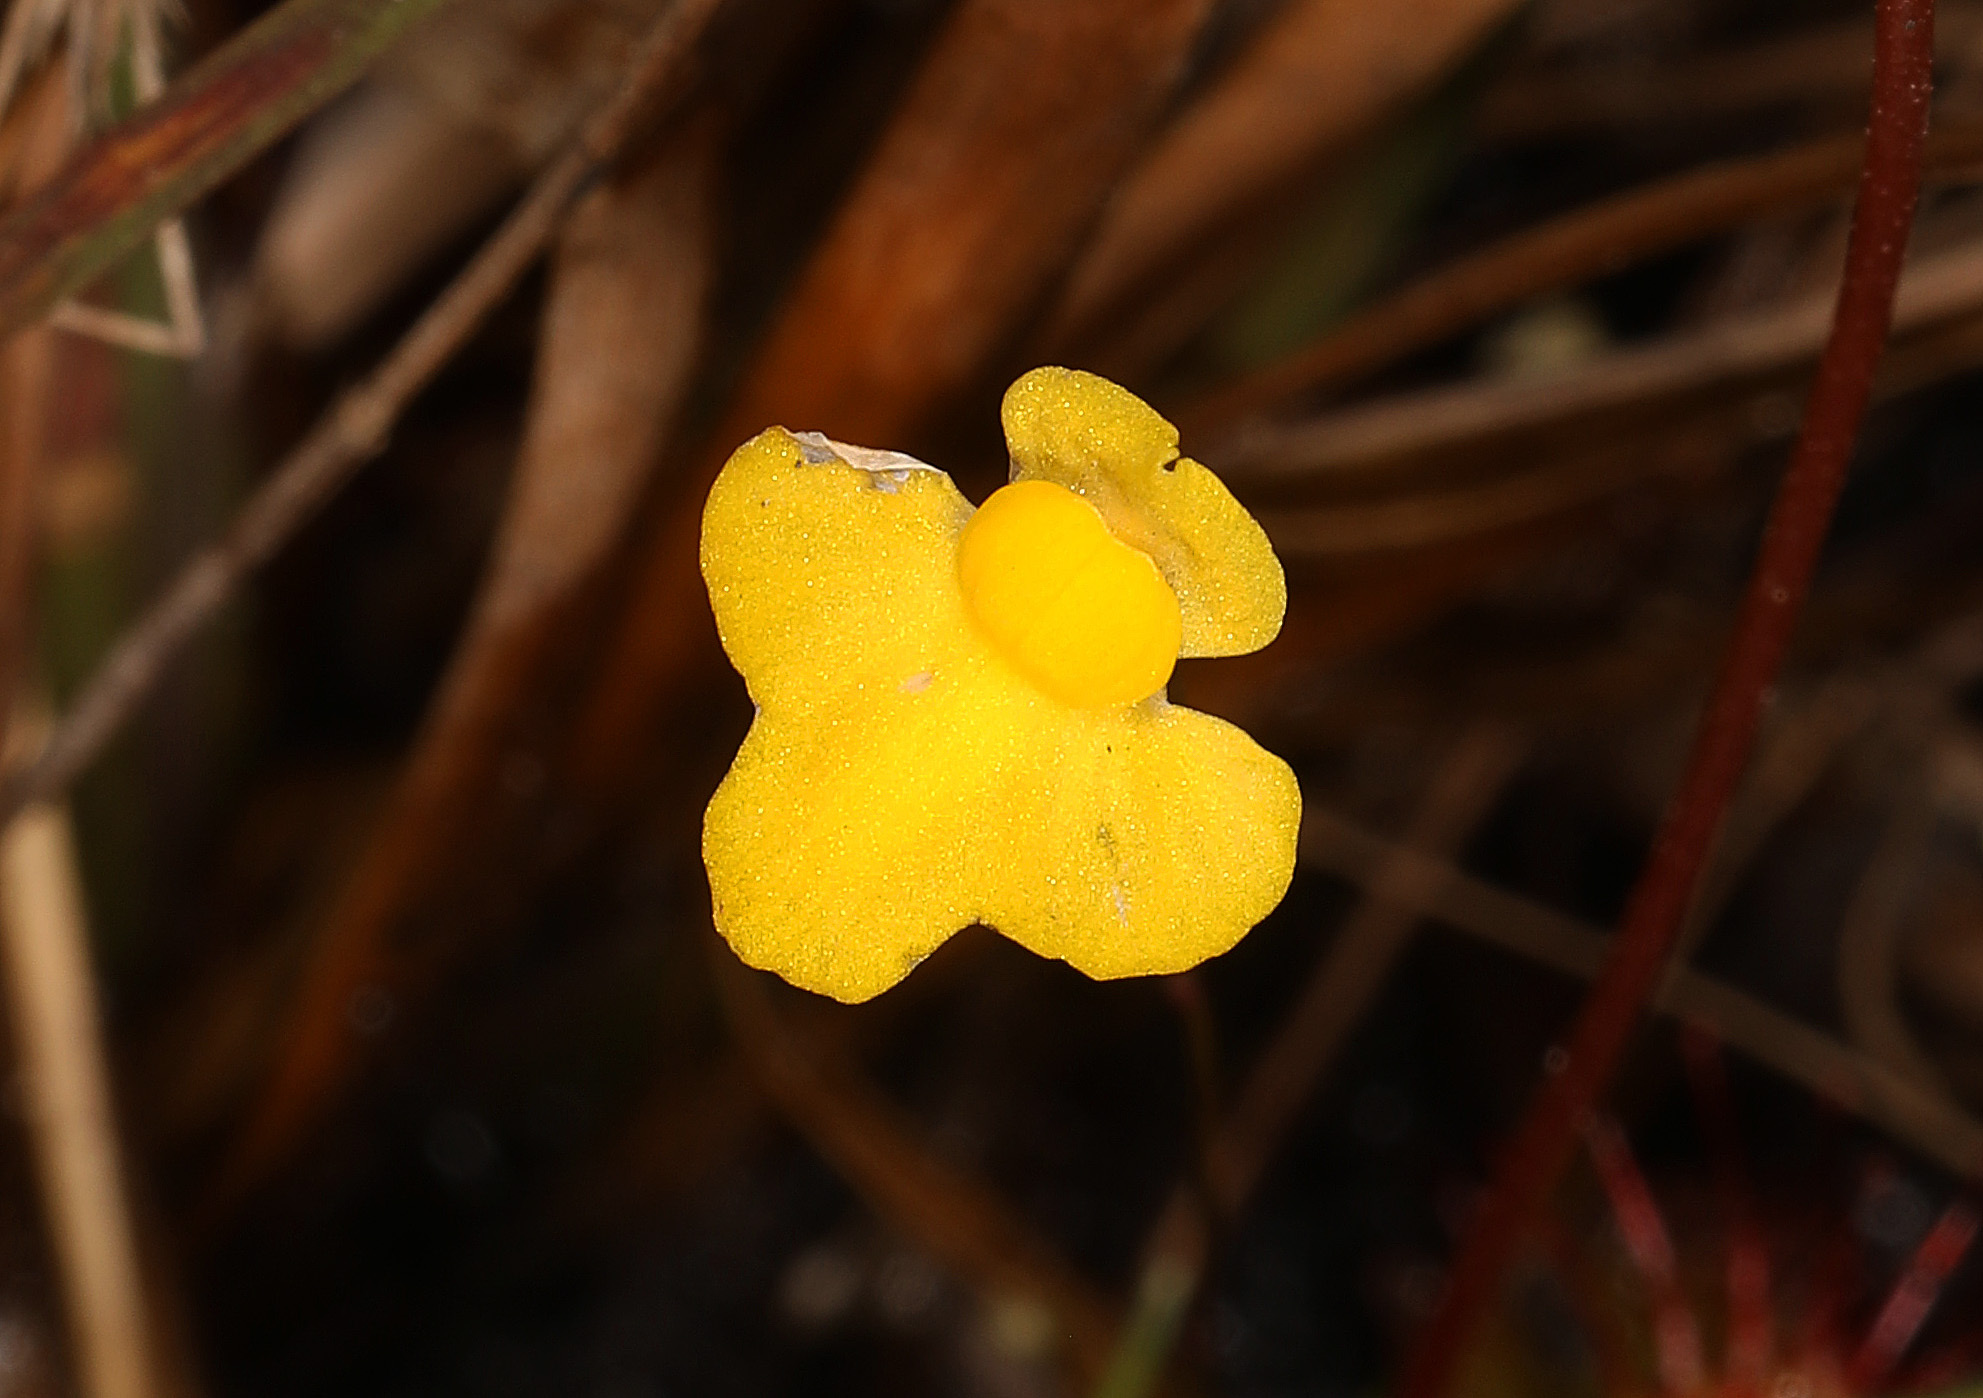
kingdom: Plantae
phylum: Tracheophyta
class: Magnoliopsida
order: Lamiales
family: Lentibulariaceae
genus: Utricularia
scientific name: Utricularia subulata
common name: Tiny bladderwort
